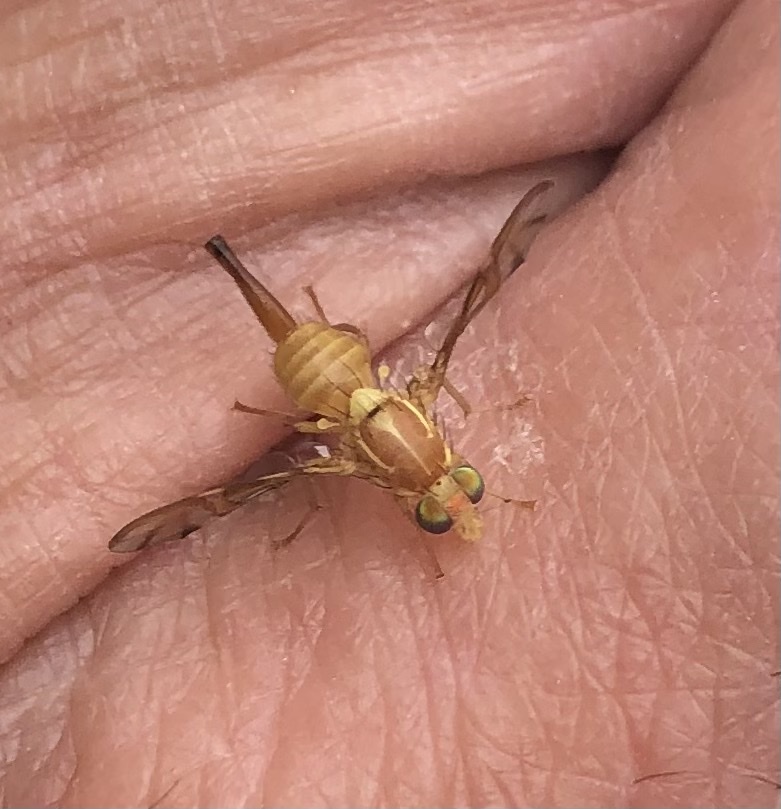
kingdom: Animalia
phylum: Arthropoda
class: Insecta
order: Diptera
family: Tephritidae
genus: Anastrepha
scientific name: Anastrepha ludens
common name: Mexican fruit fly
